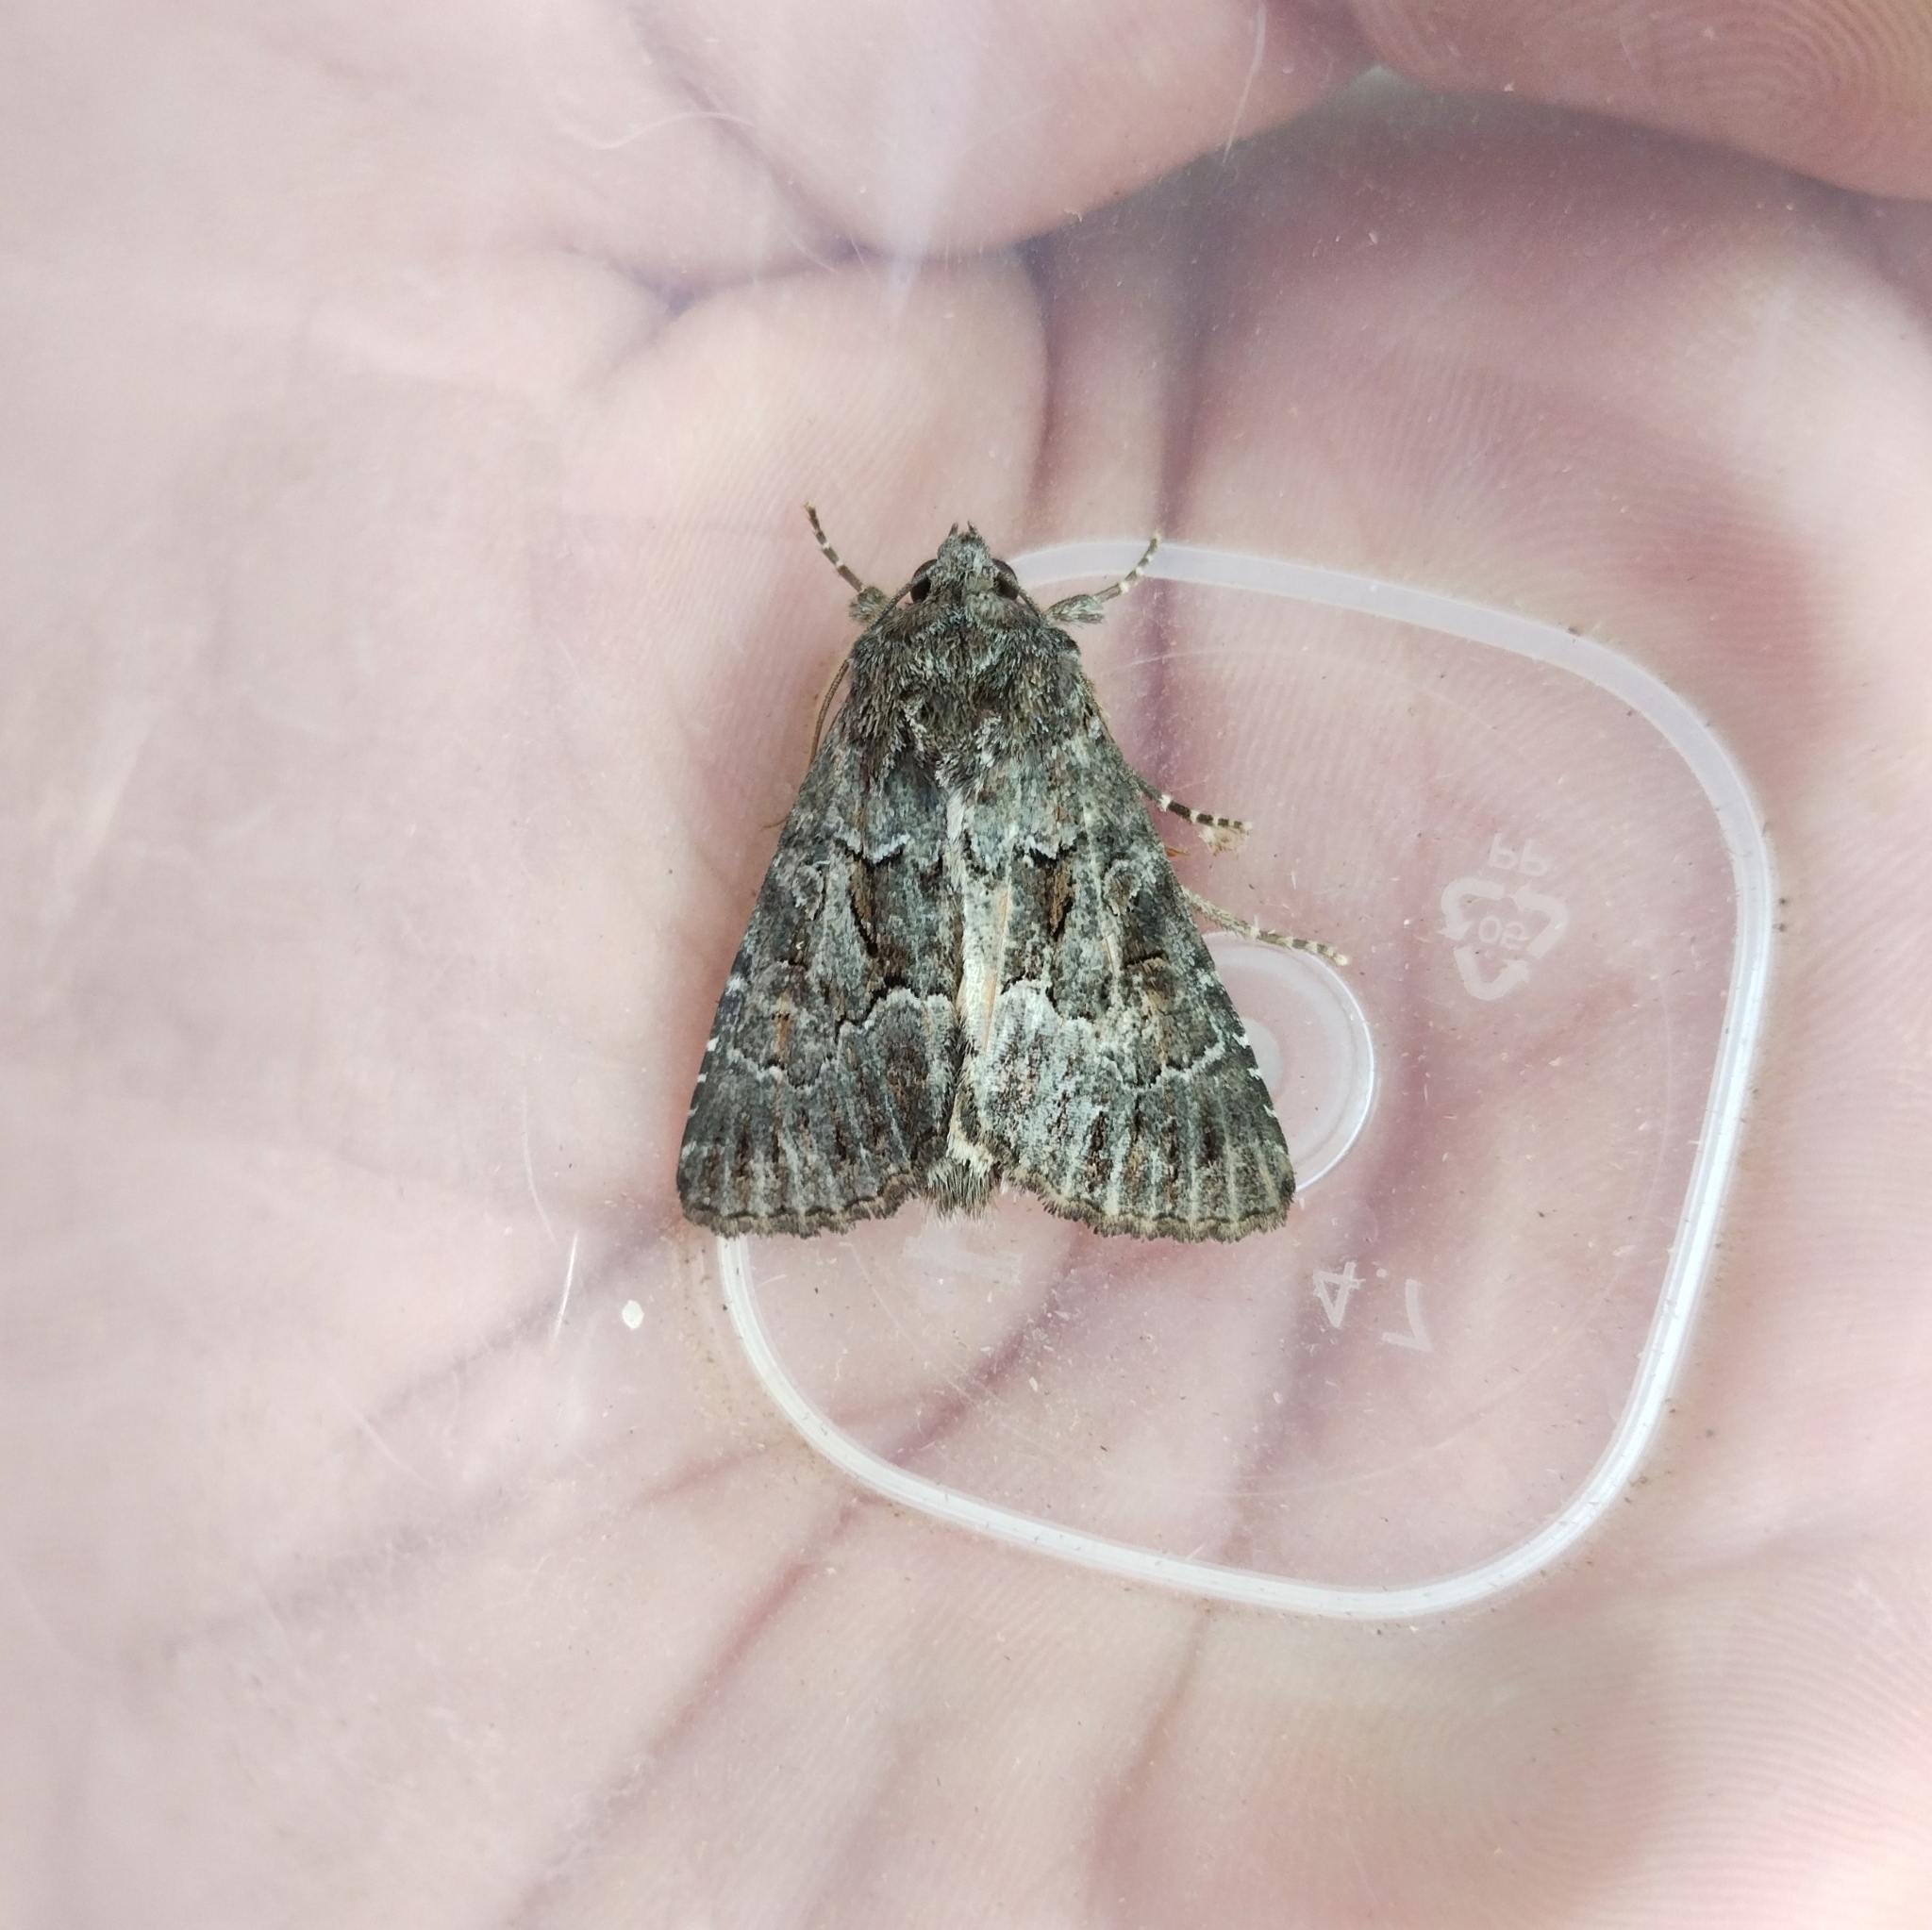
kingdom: Animalia
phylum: Arthropoda
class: Insecta
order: Lepidoptera
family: Noctuidae
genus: Thalpophila
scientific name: Thalpophila matura
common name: Straw underwing
